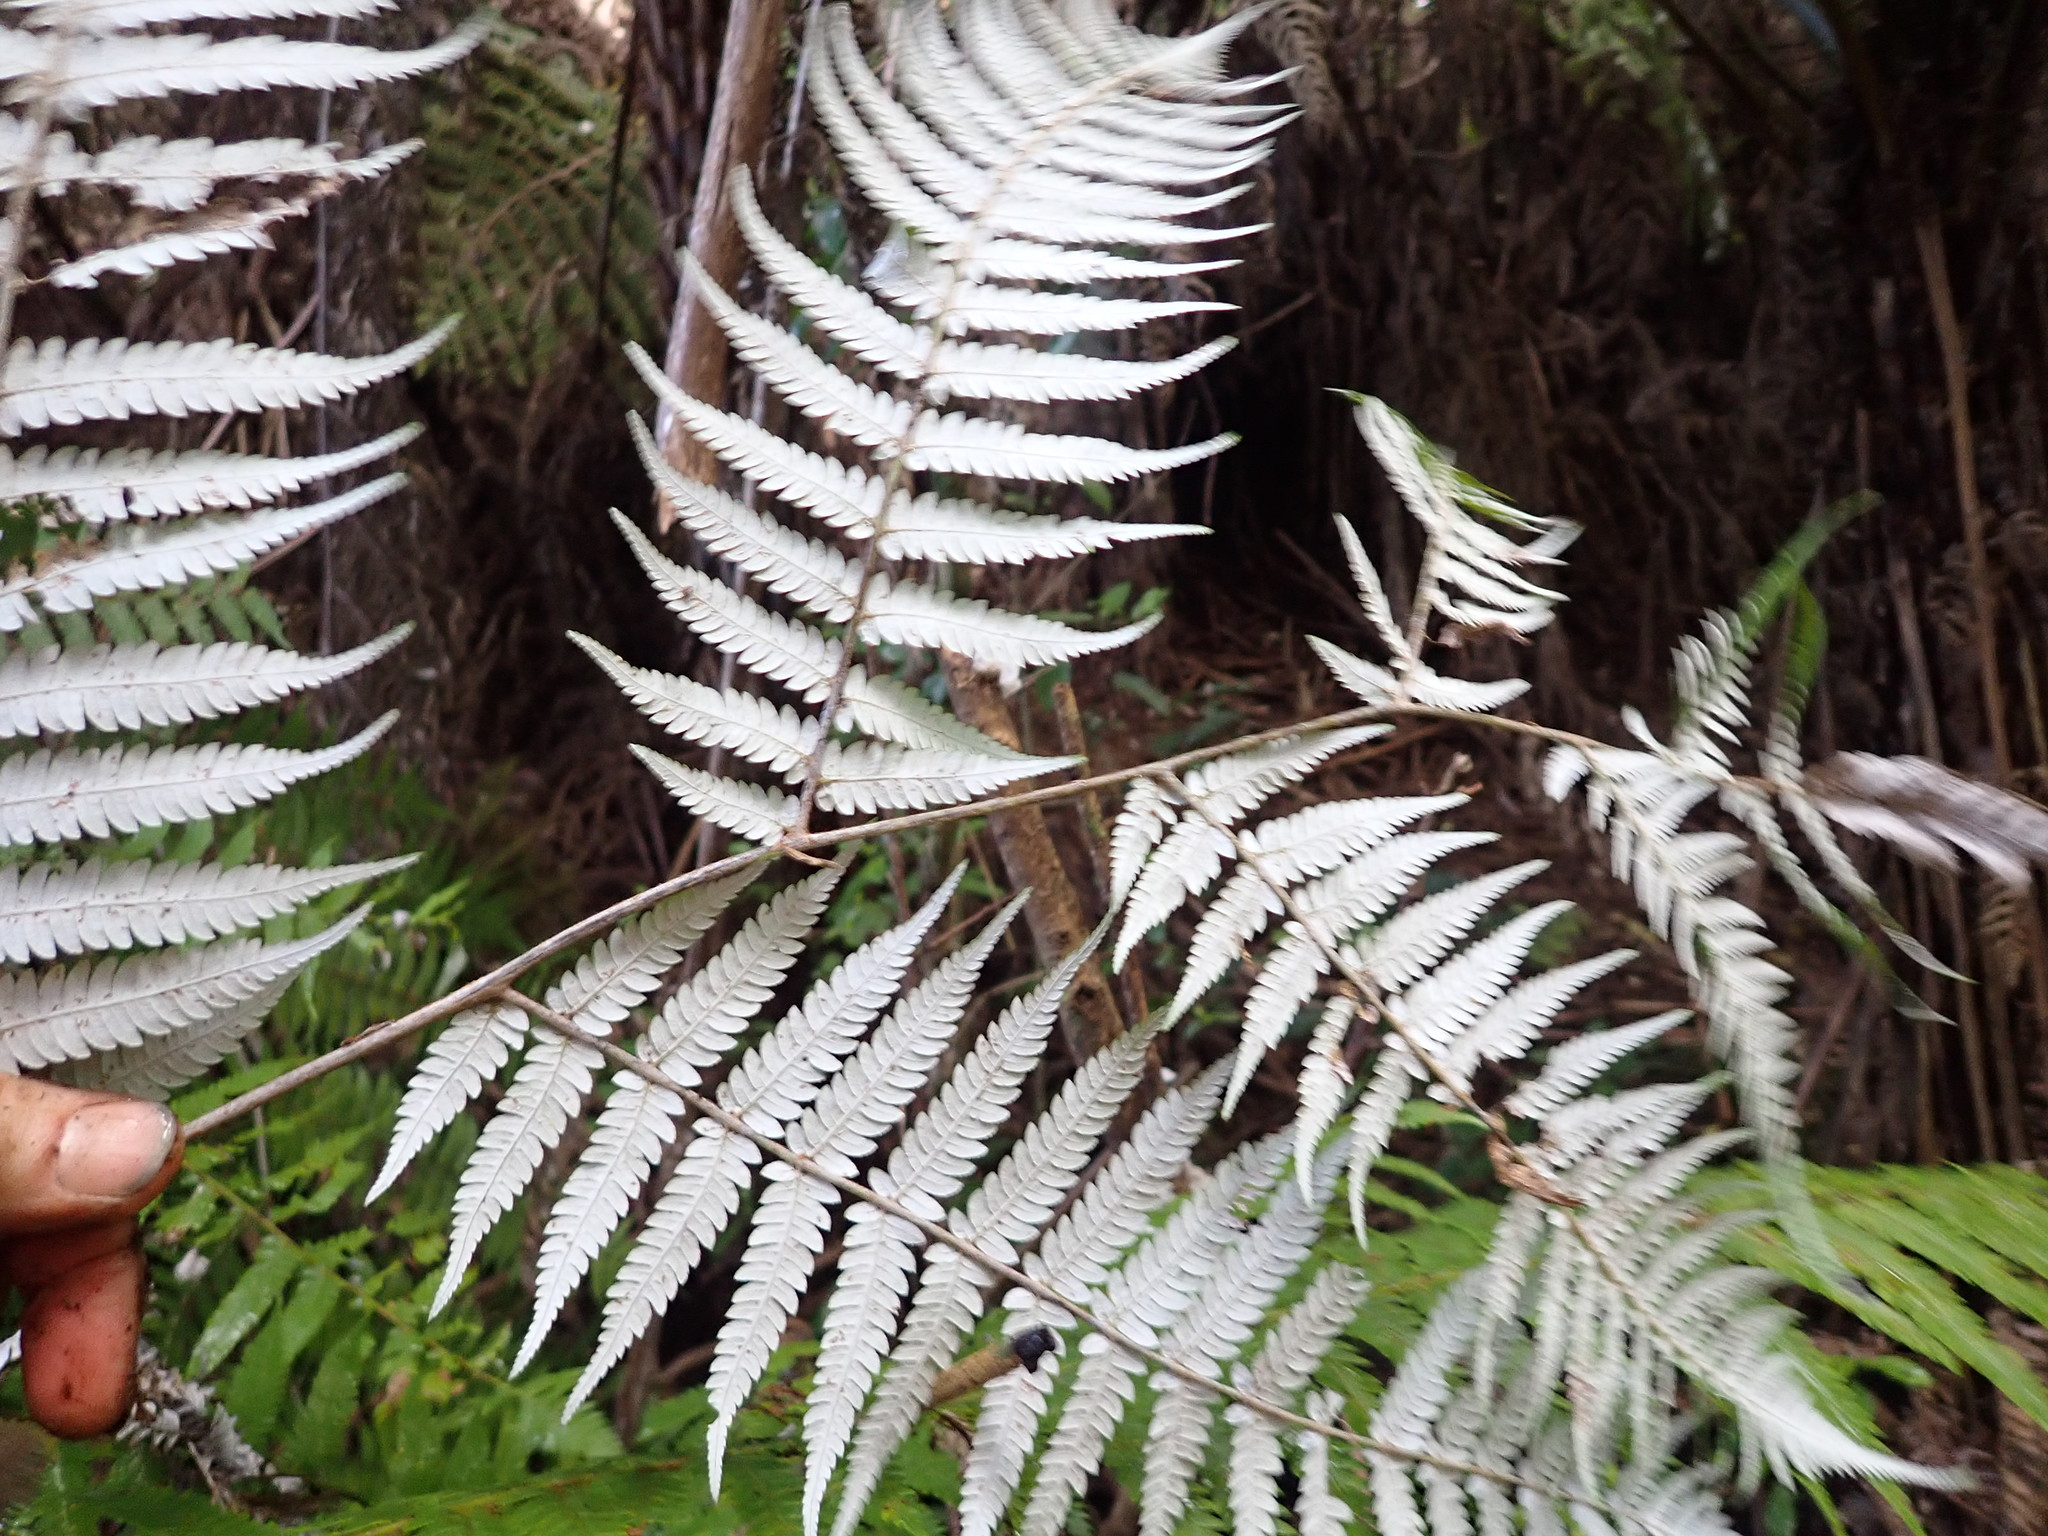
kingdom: Plantae
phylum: Tracheophyta
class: Polypodiopsida
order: Cyatheales
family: Cyatheaceae
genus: Alsophila
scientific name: Alsophila dealbata
